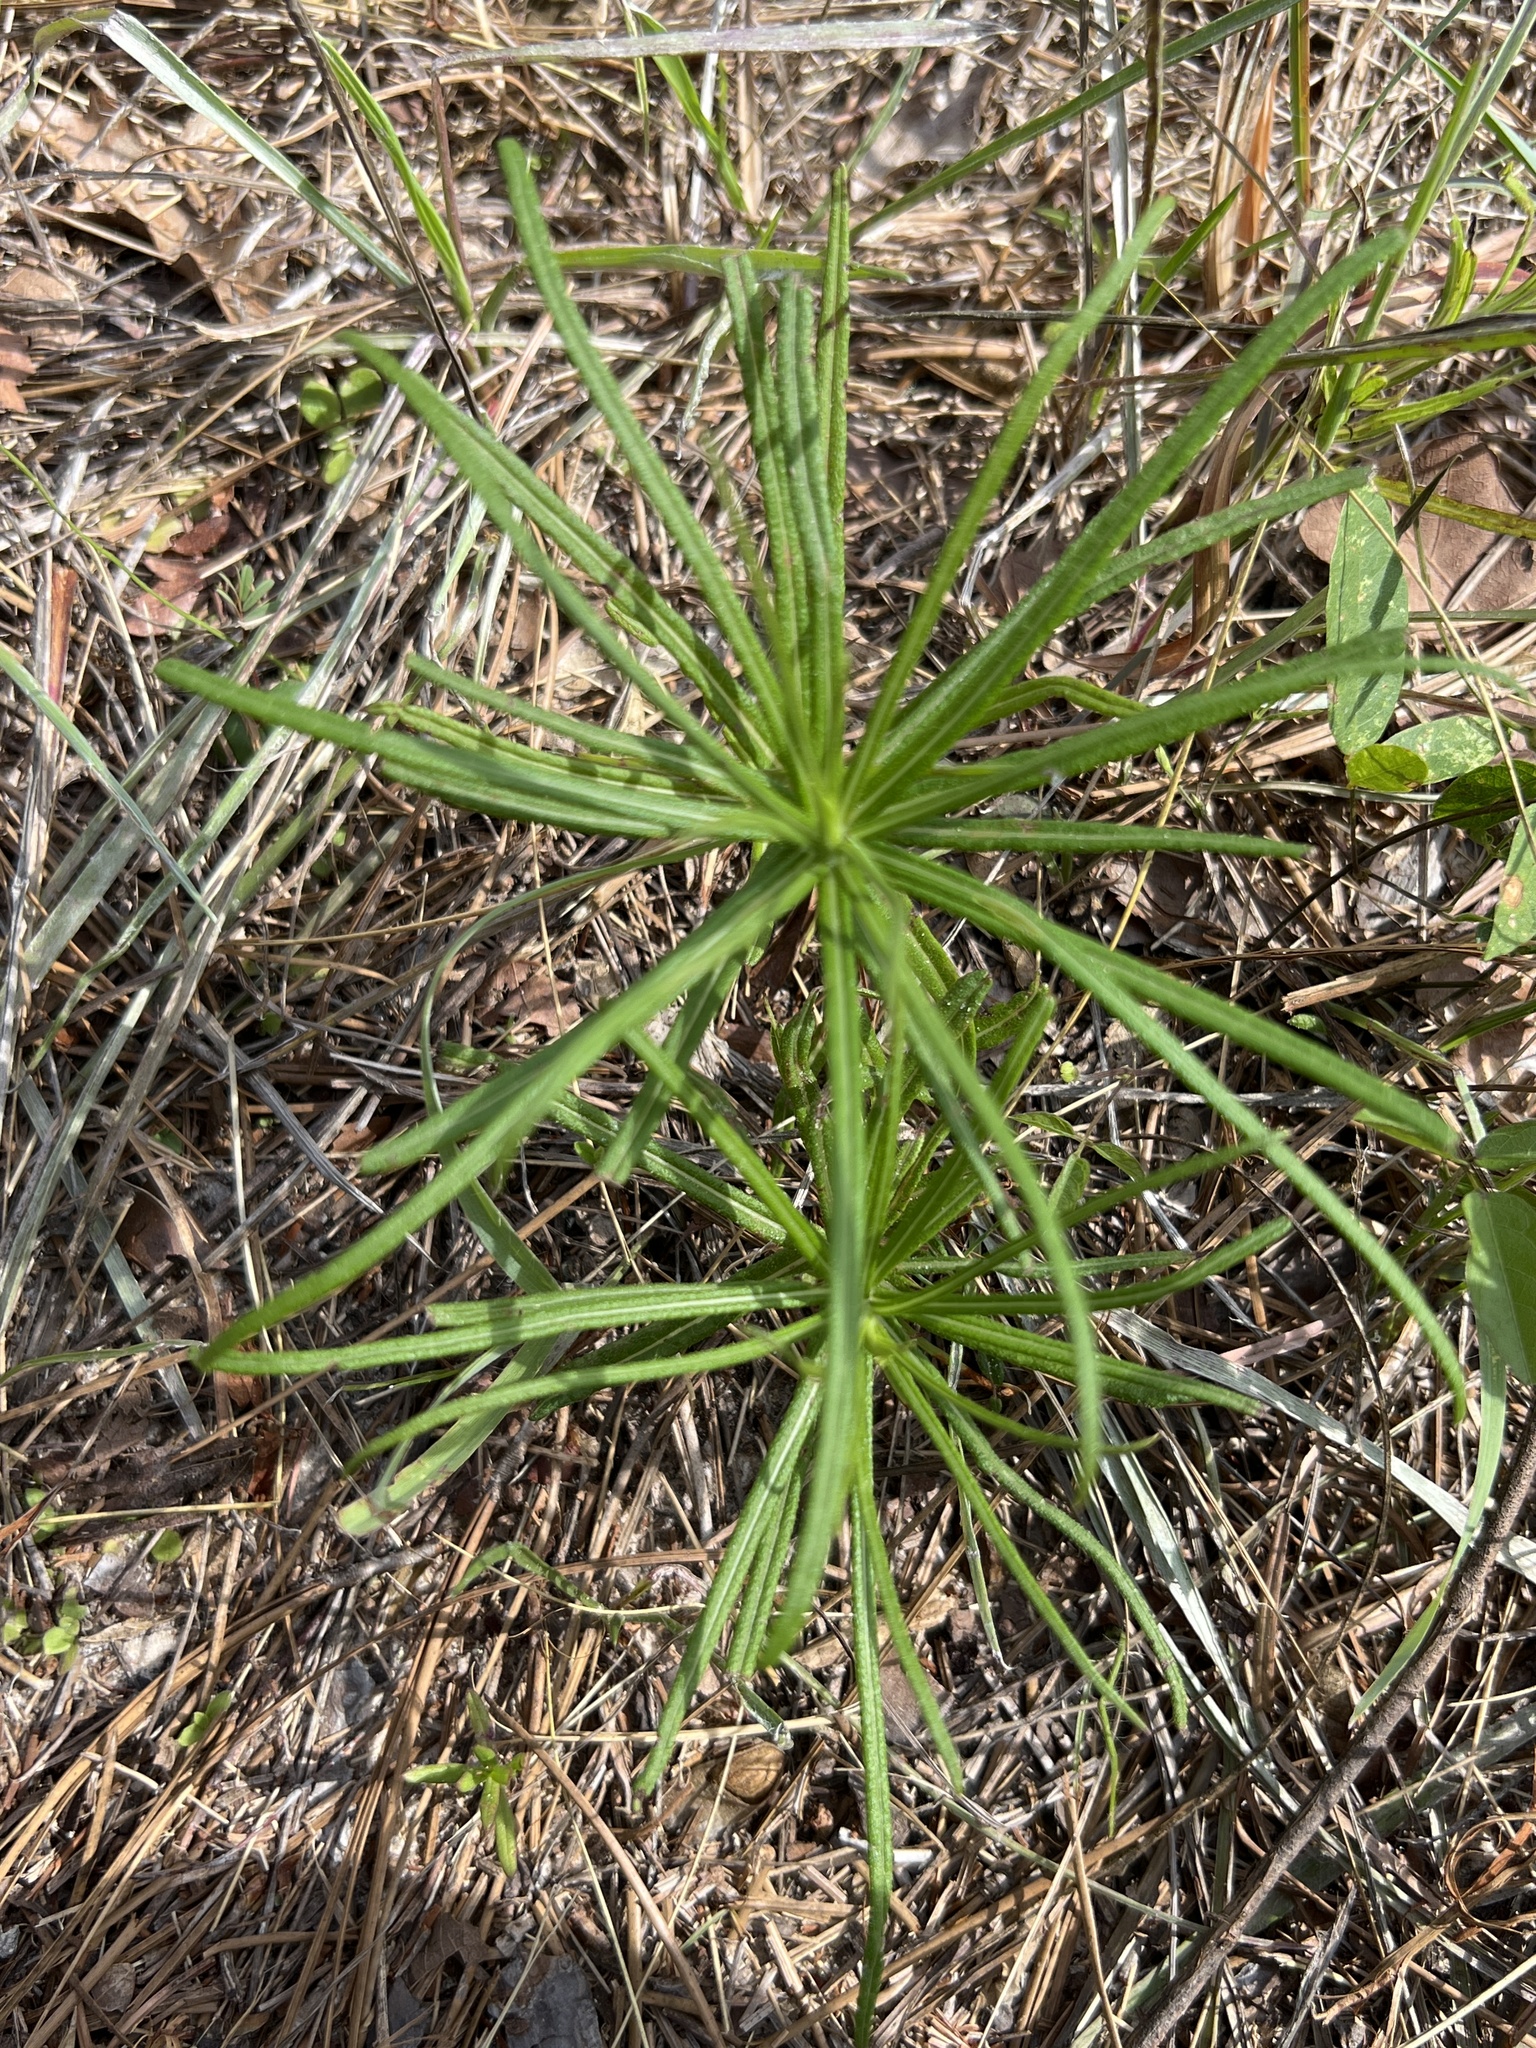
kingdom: Plantae
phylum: Tracheophyta
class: Magnoliopsida
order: Asterales
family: Asteraceae
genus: Vernonia
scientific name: Vernonia angustifolia
